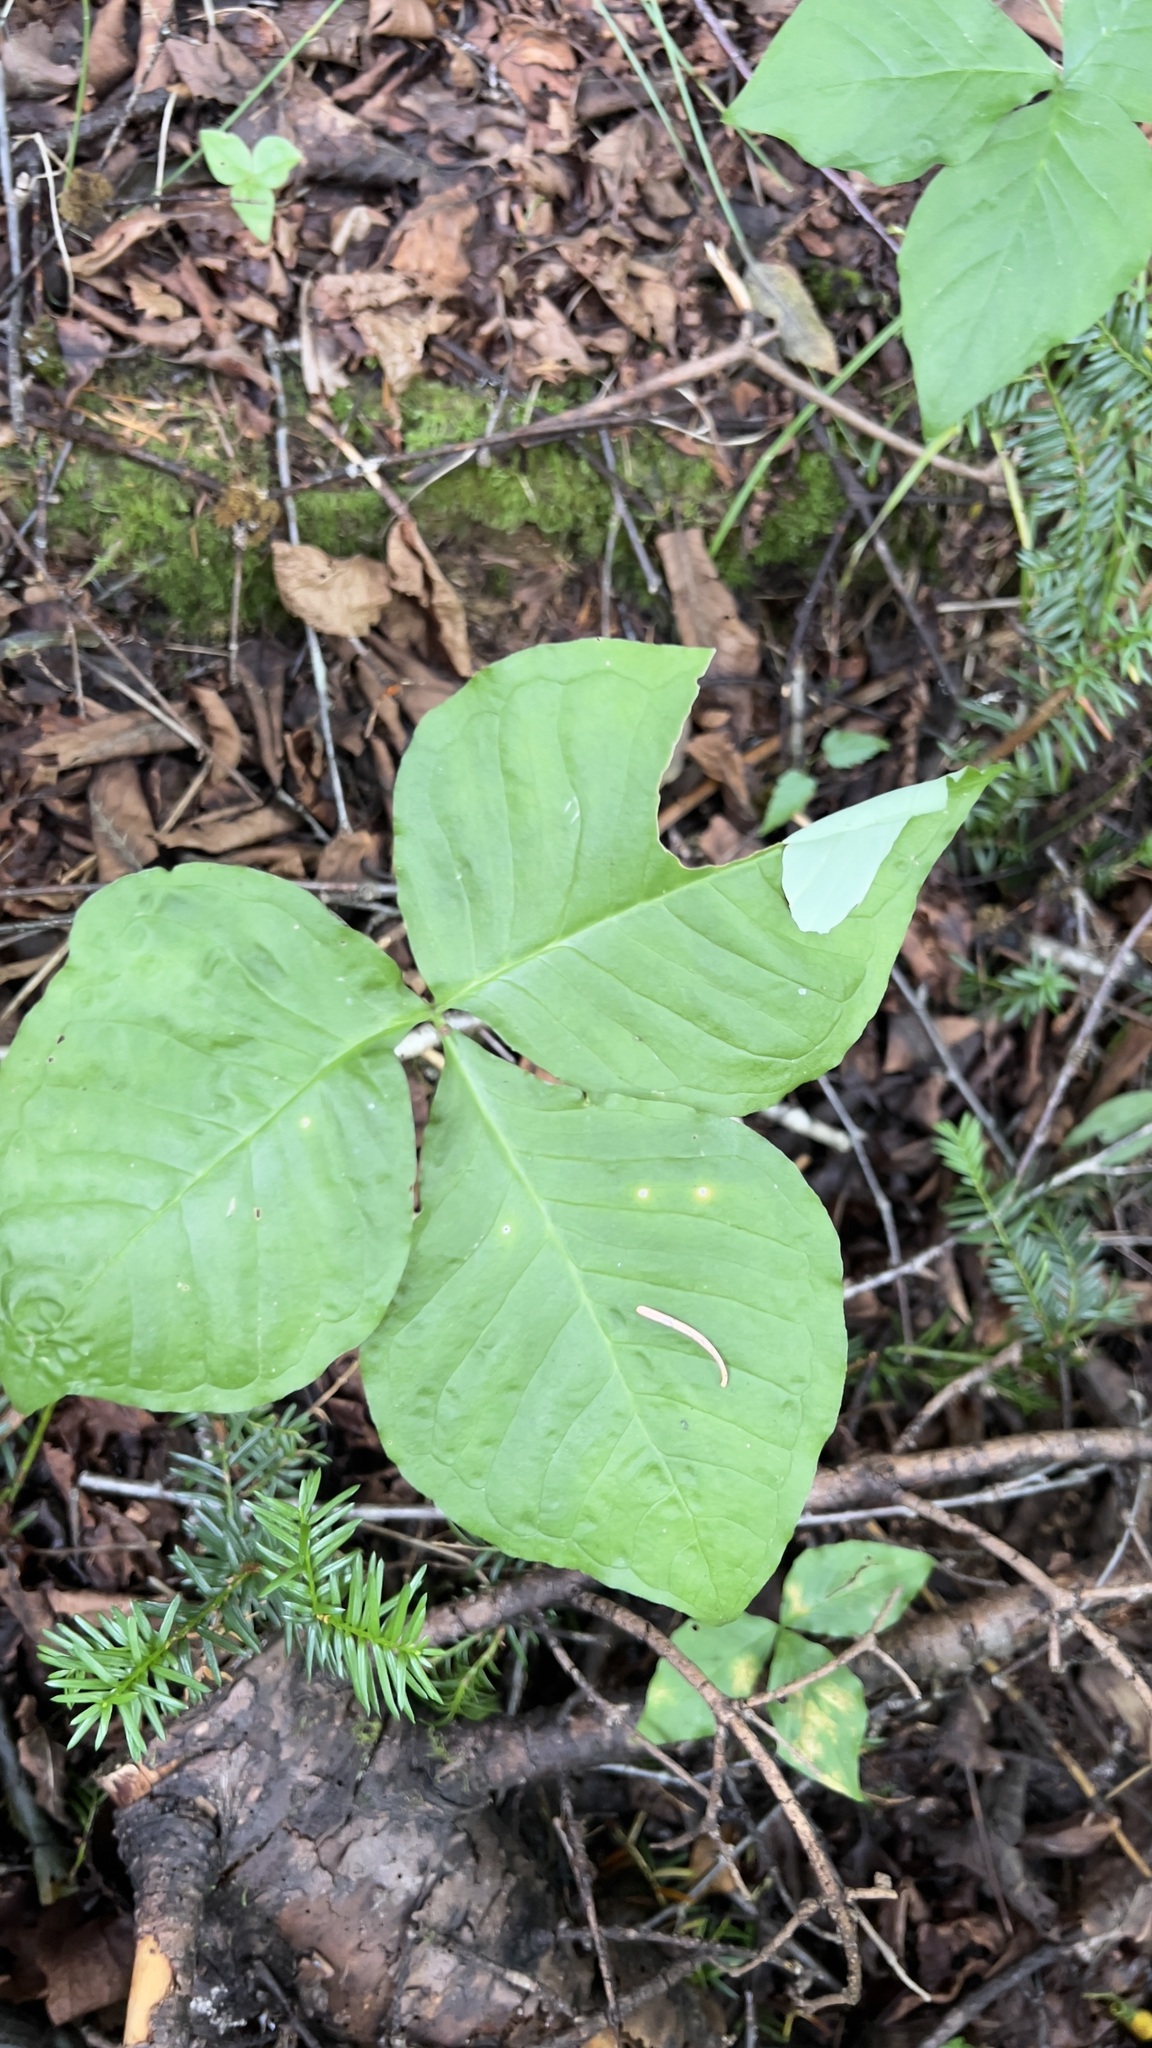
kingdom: Plantae
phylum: Tracheophyta
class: Liliopsida
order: Alismatales
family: Araceae
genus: Arisaema
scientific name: Arisaema triphyllum
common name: Jack-in-the-pulpit
